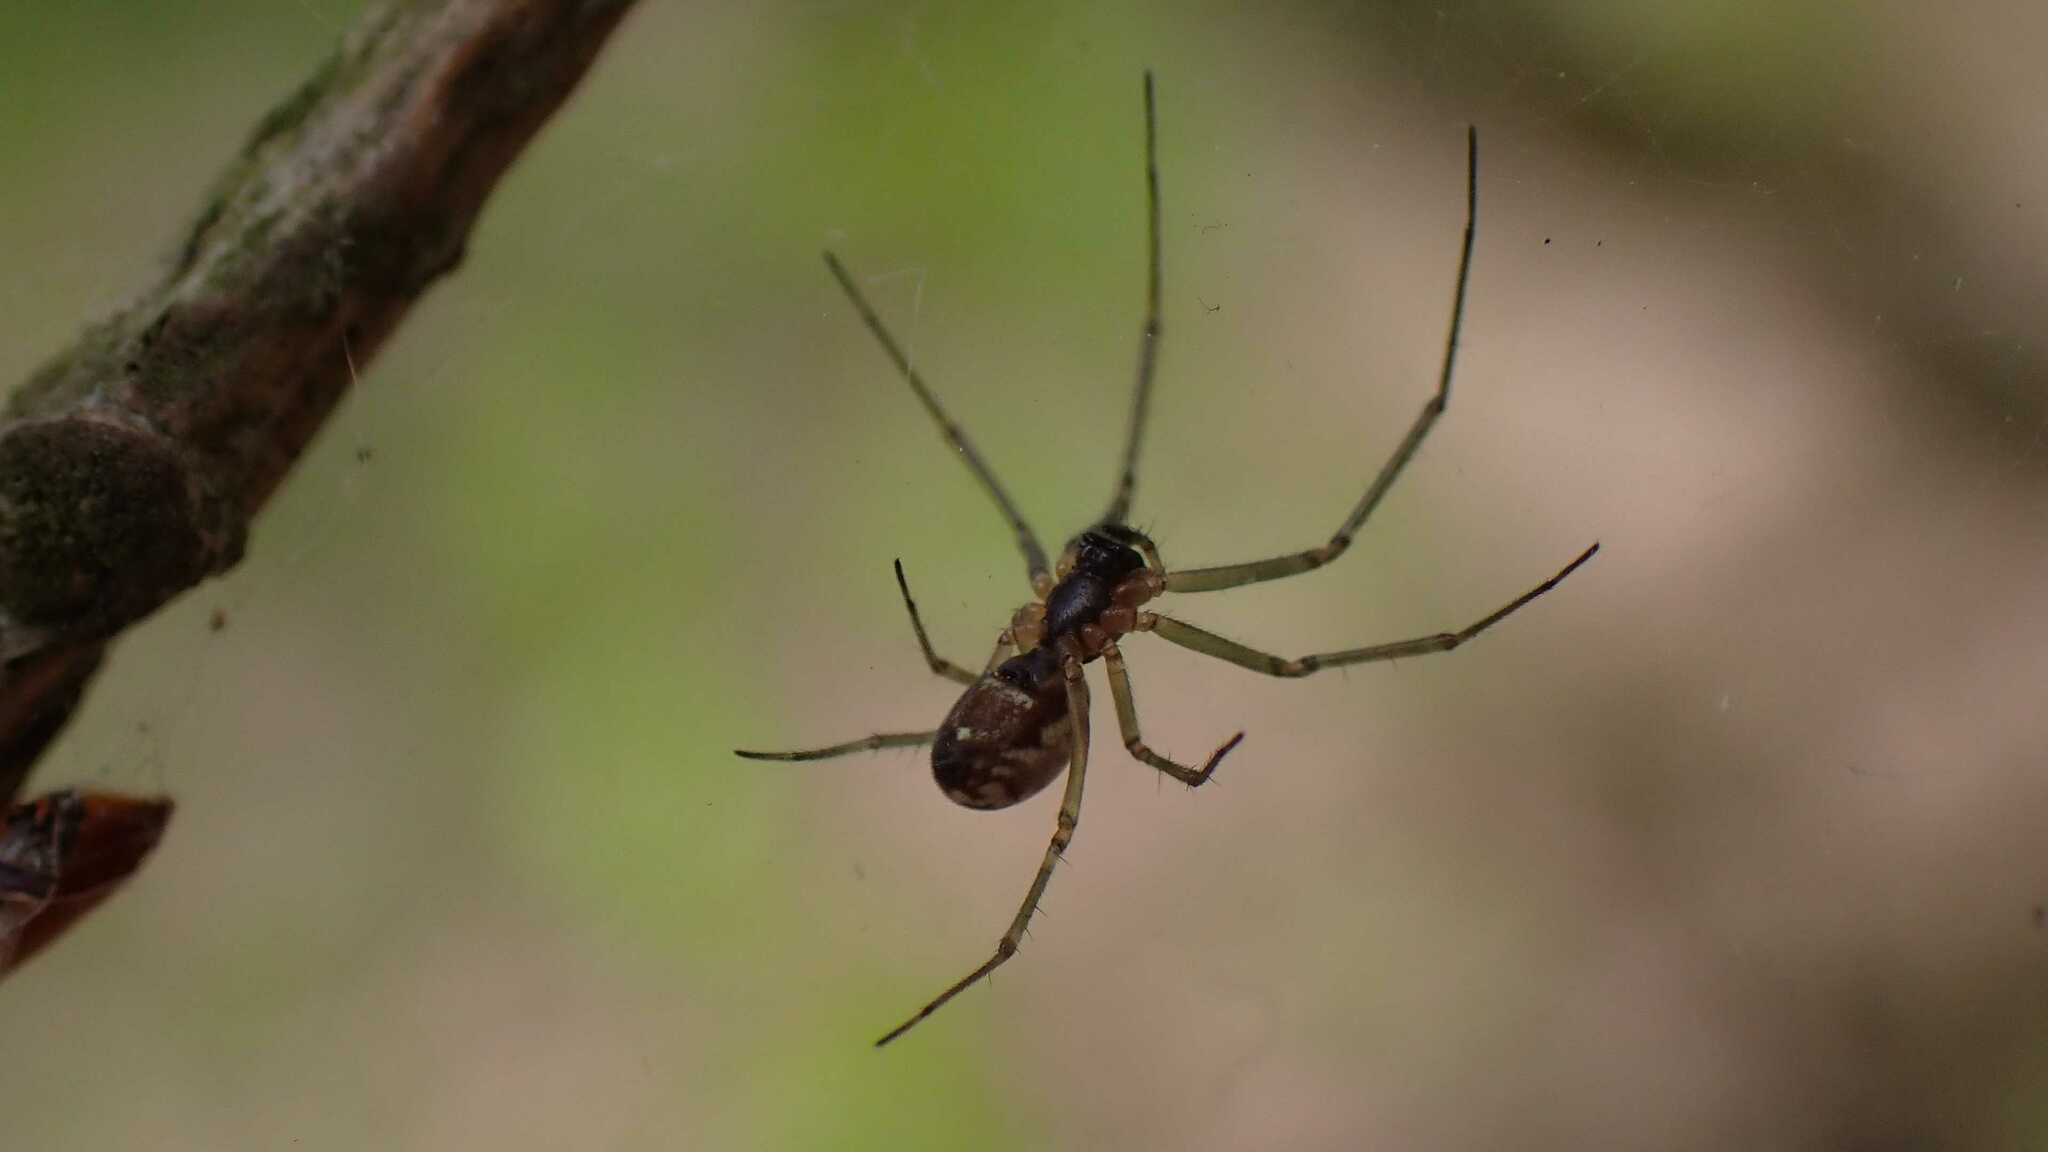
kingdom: Animalia
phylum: Arthropoda
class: Arachnida
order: Araneae
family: Linyphiidae
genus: Neriene
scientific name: Neriene peltata
